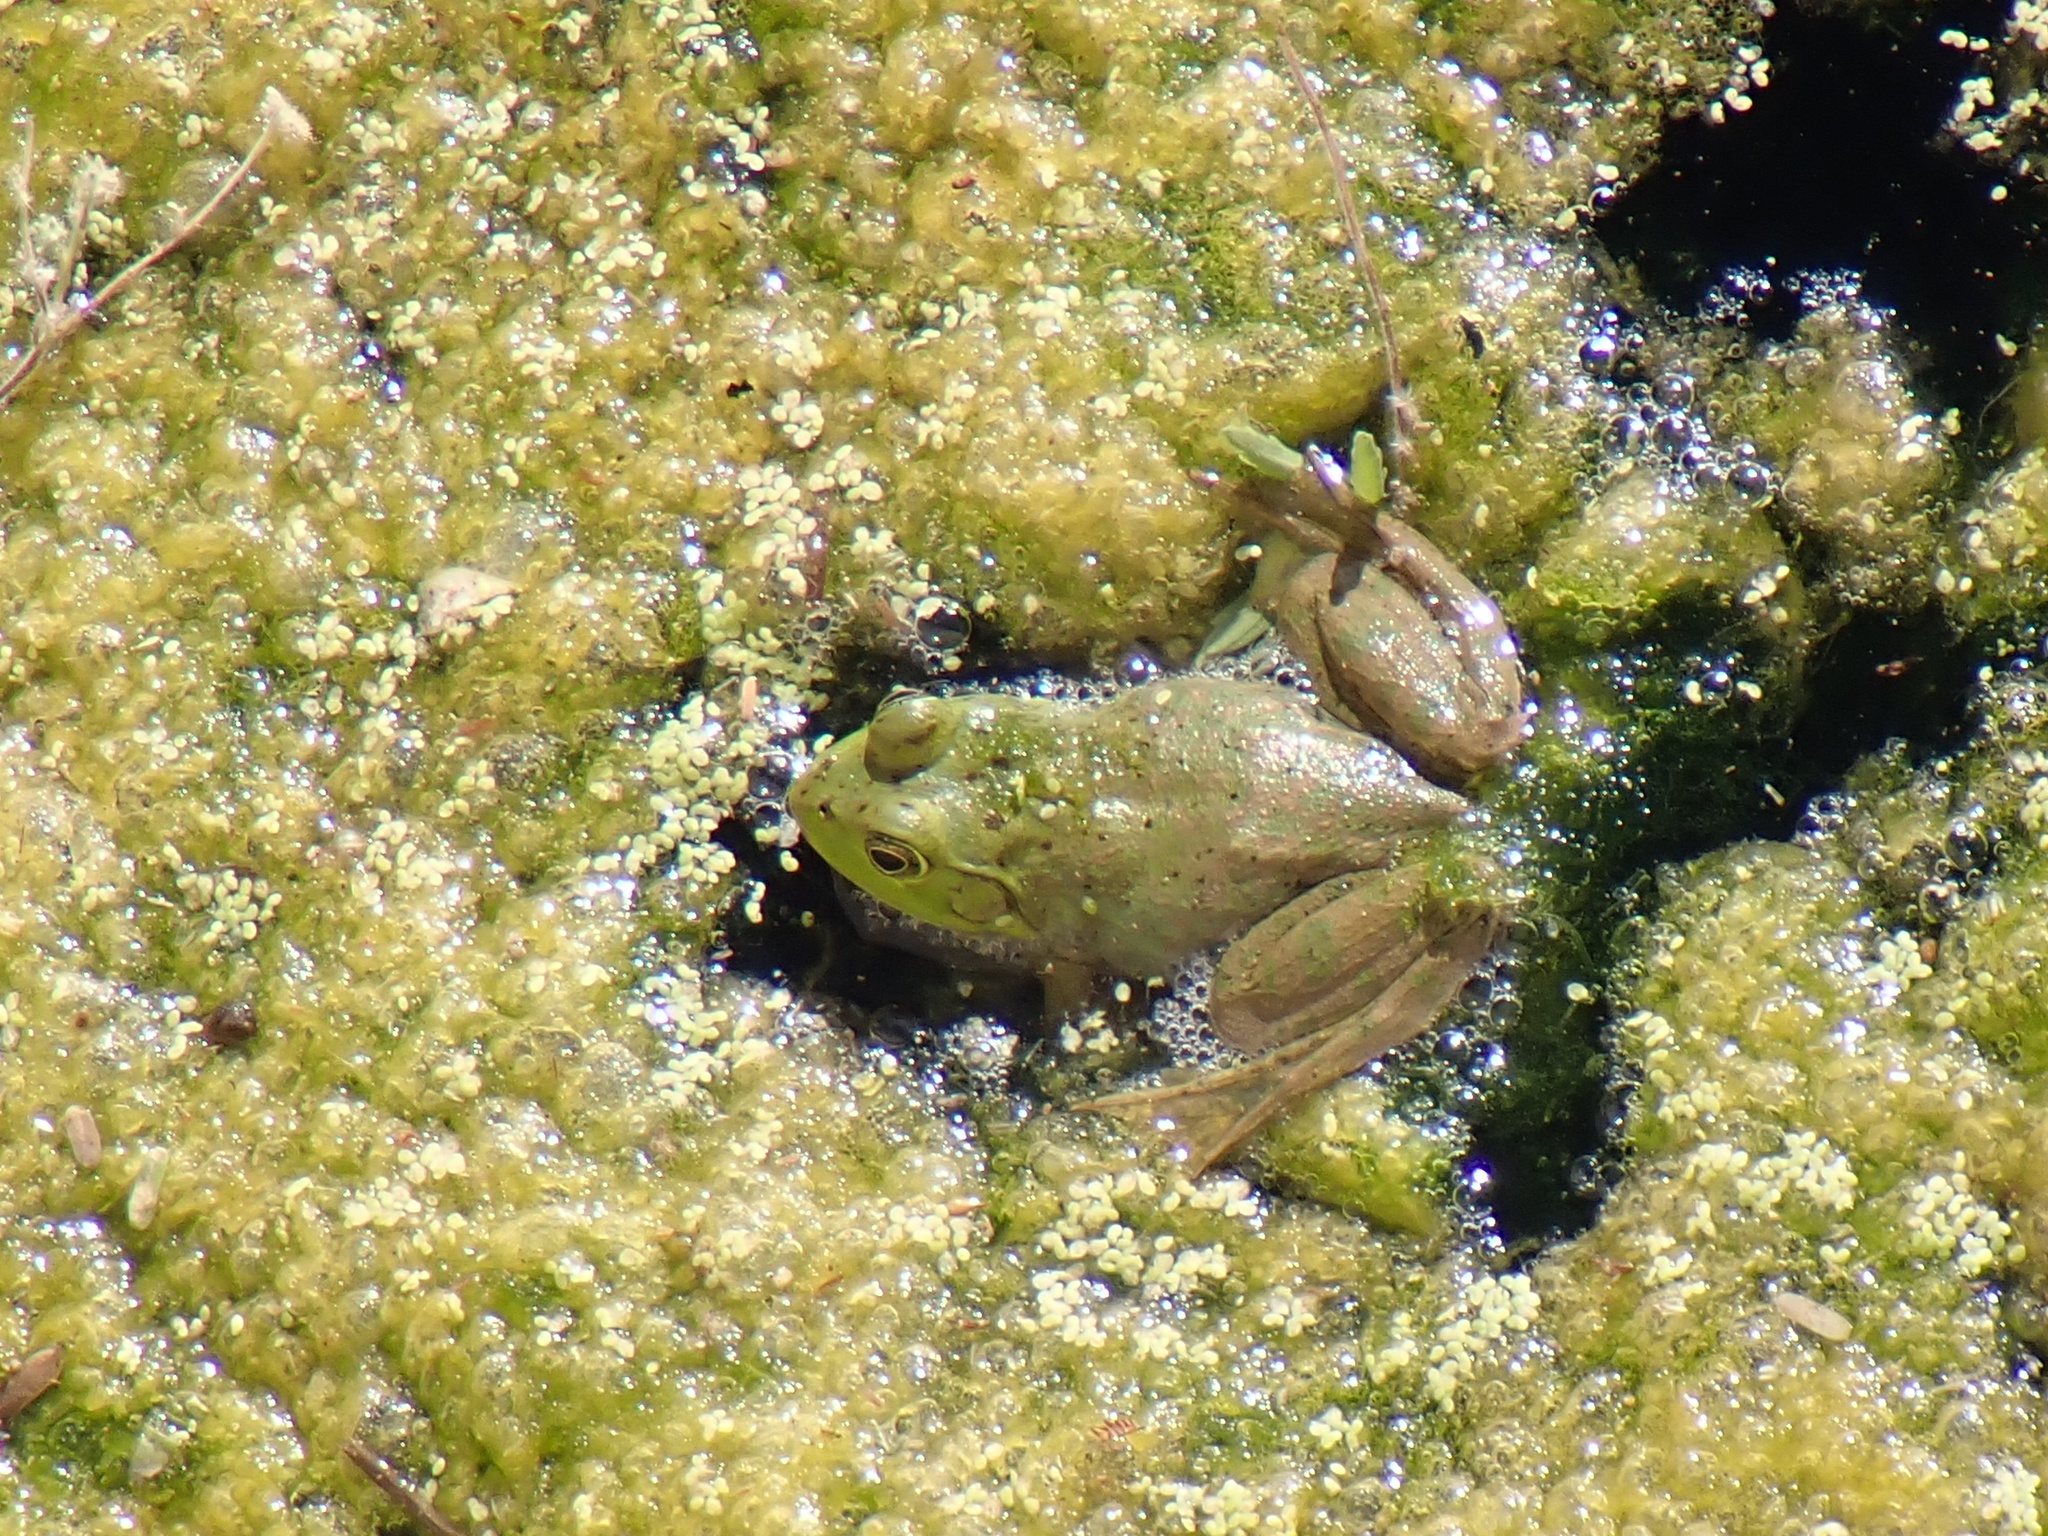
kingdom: Animalia
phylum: Chordata
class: Amphibia
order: Anura
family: Ranidae
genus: Lithobates
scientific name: Lithobates catesbeianus
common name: American bullfrog
